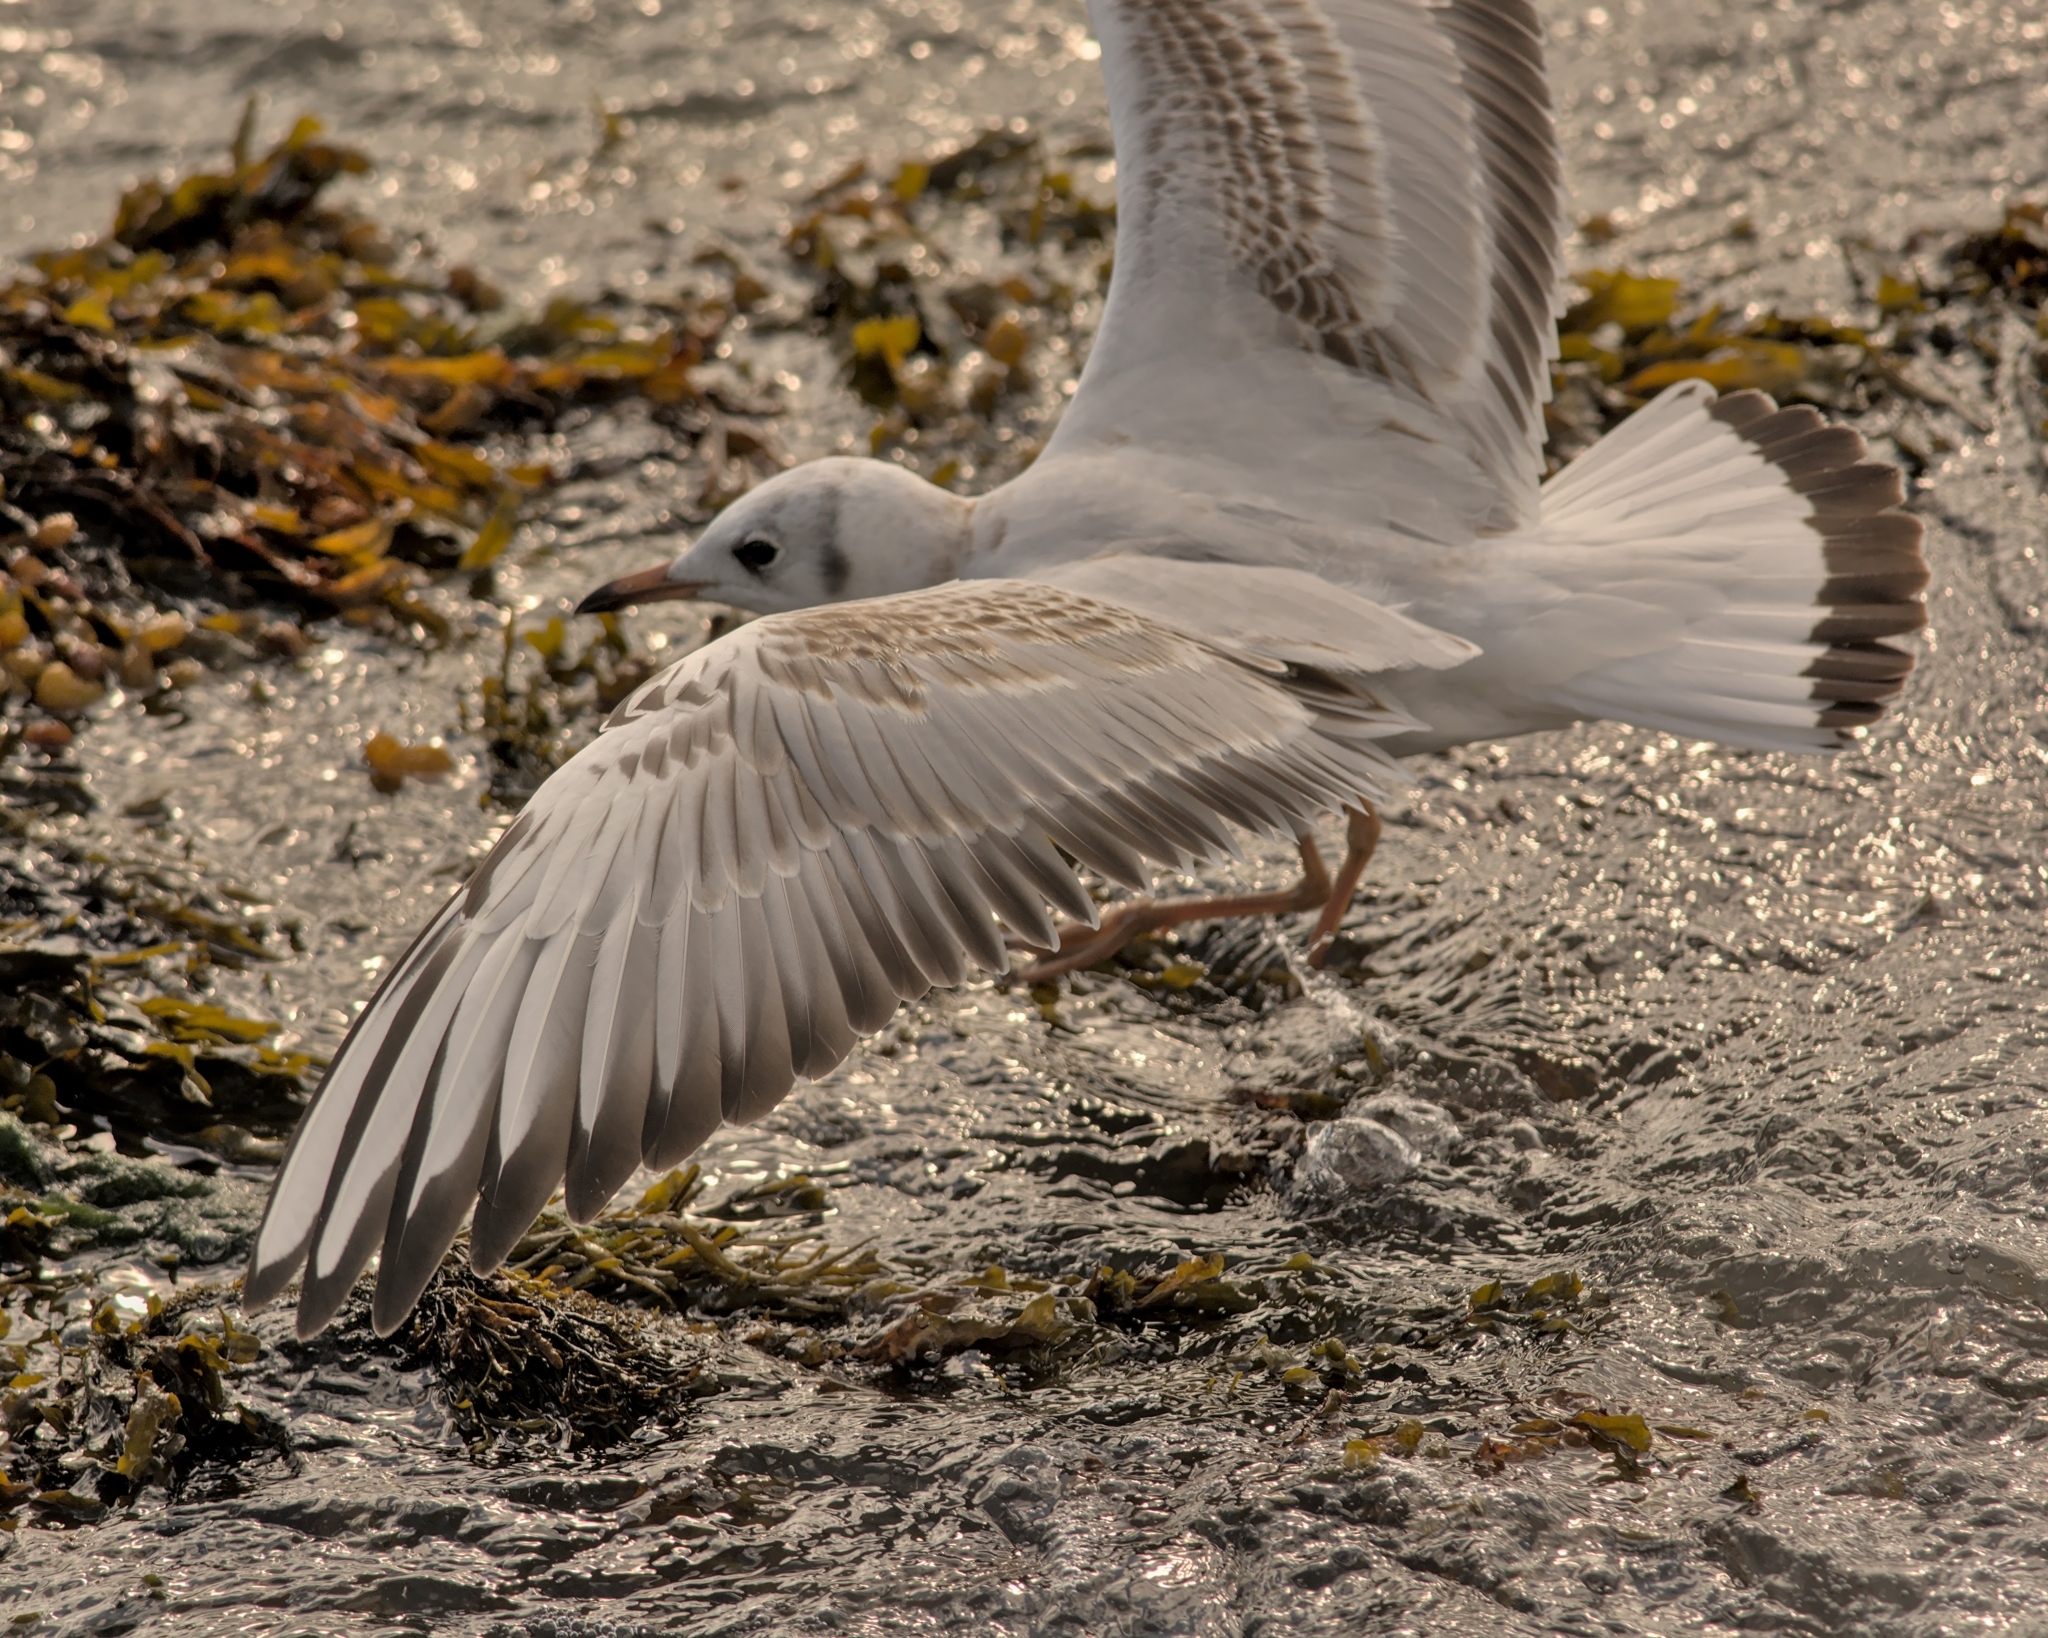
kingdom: Animalia
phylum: Chordata
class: Aves
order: Charadriiformes
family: Laridae
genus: Chroicocephalus
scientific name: Chroicocephalus ridibundus
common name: Black-headed gull
